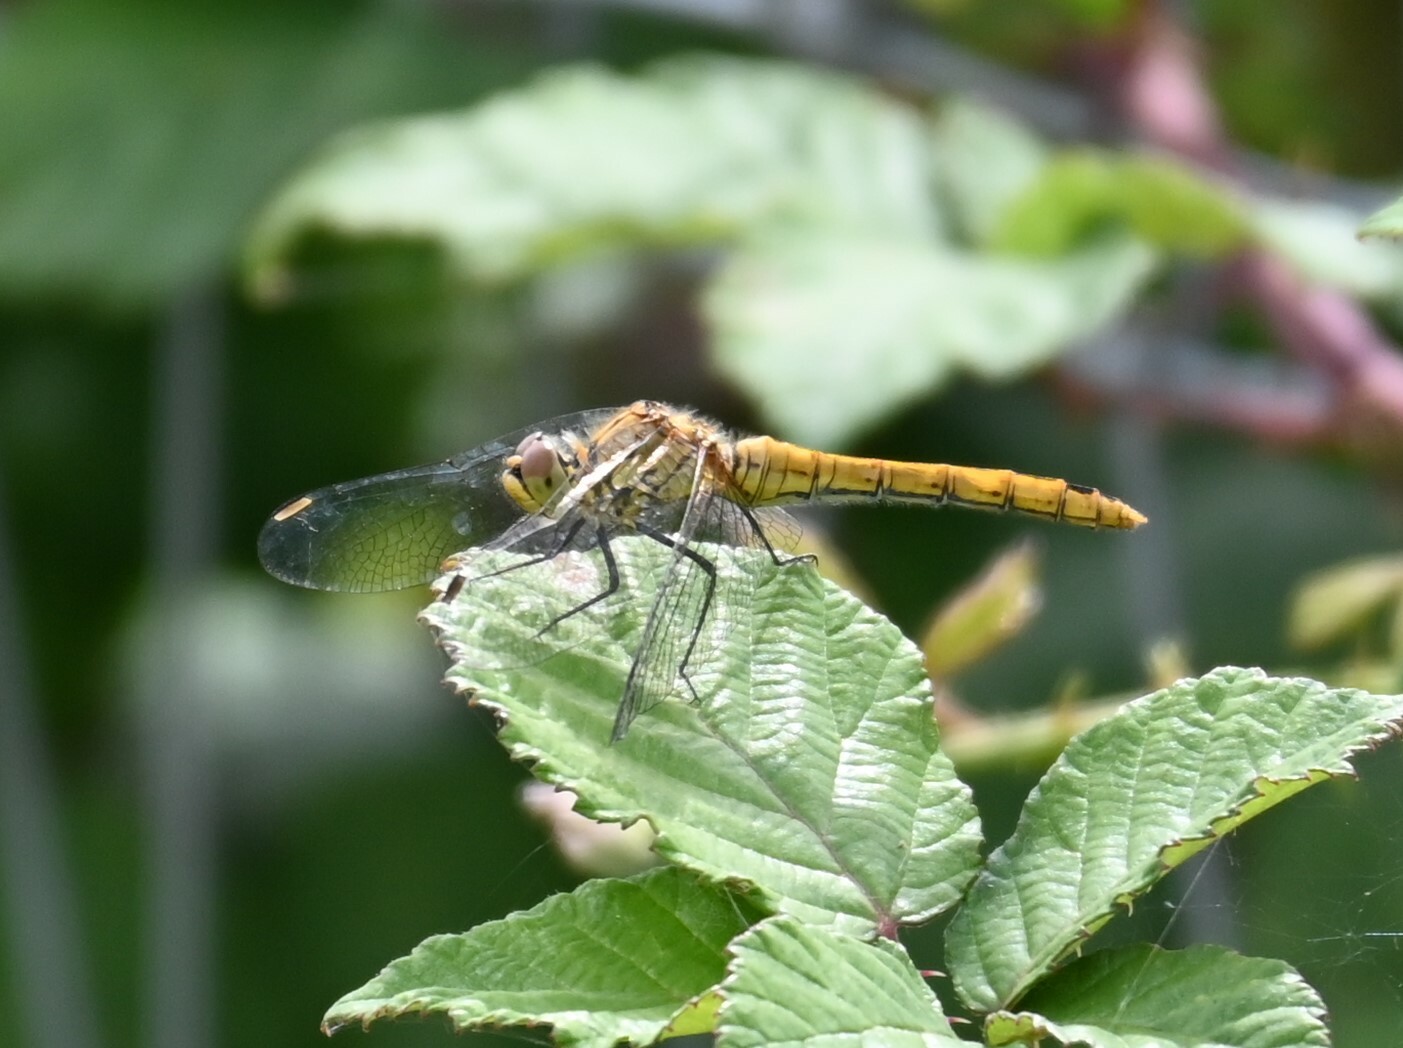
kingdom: Animalia
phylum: Arthropoda
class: Insecta
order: Odonata
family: Libellulidae
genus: Sympetrum
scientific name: Sympetrum sanguineum
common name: Ruddy darter
